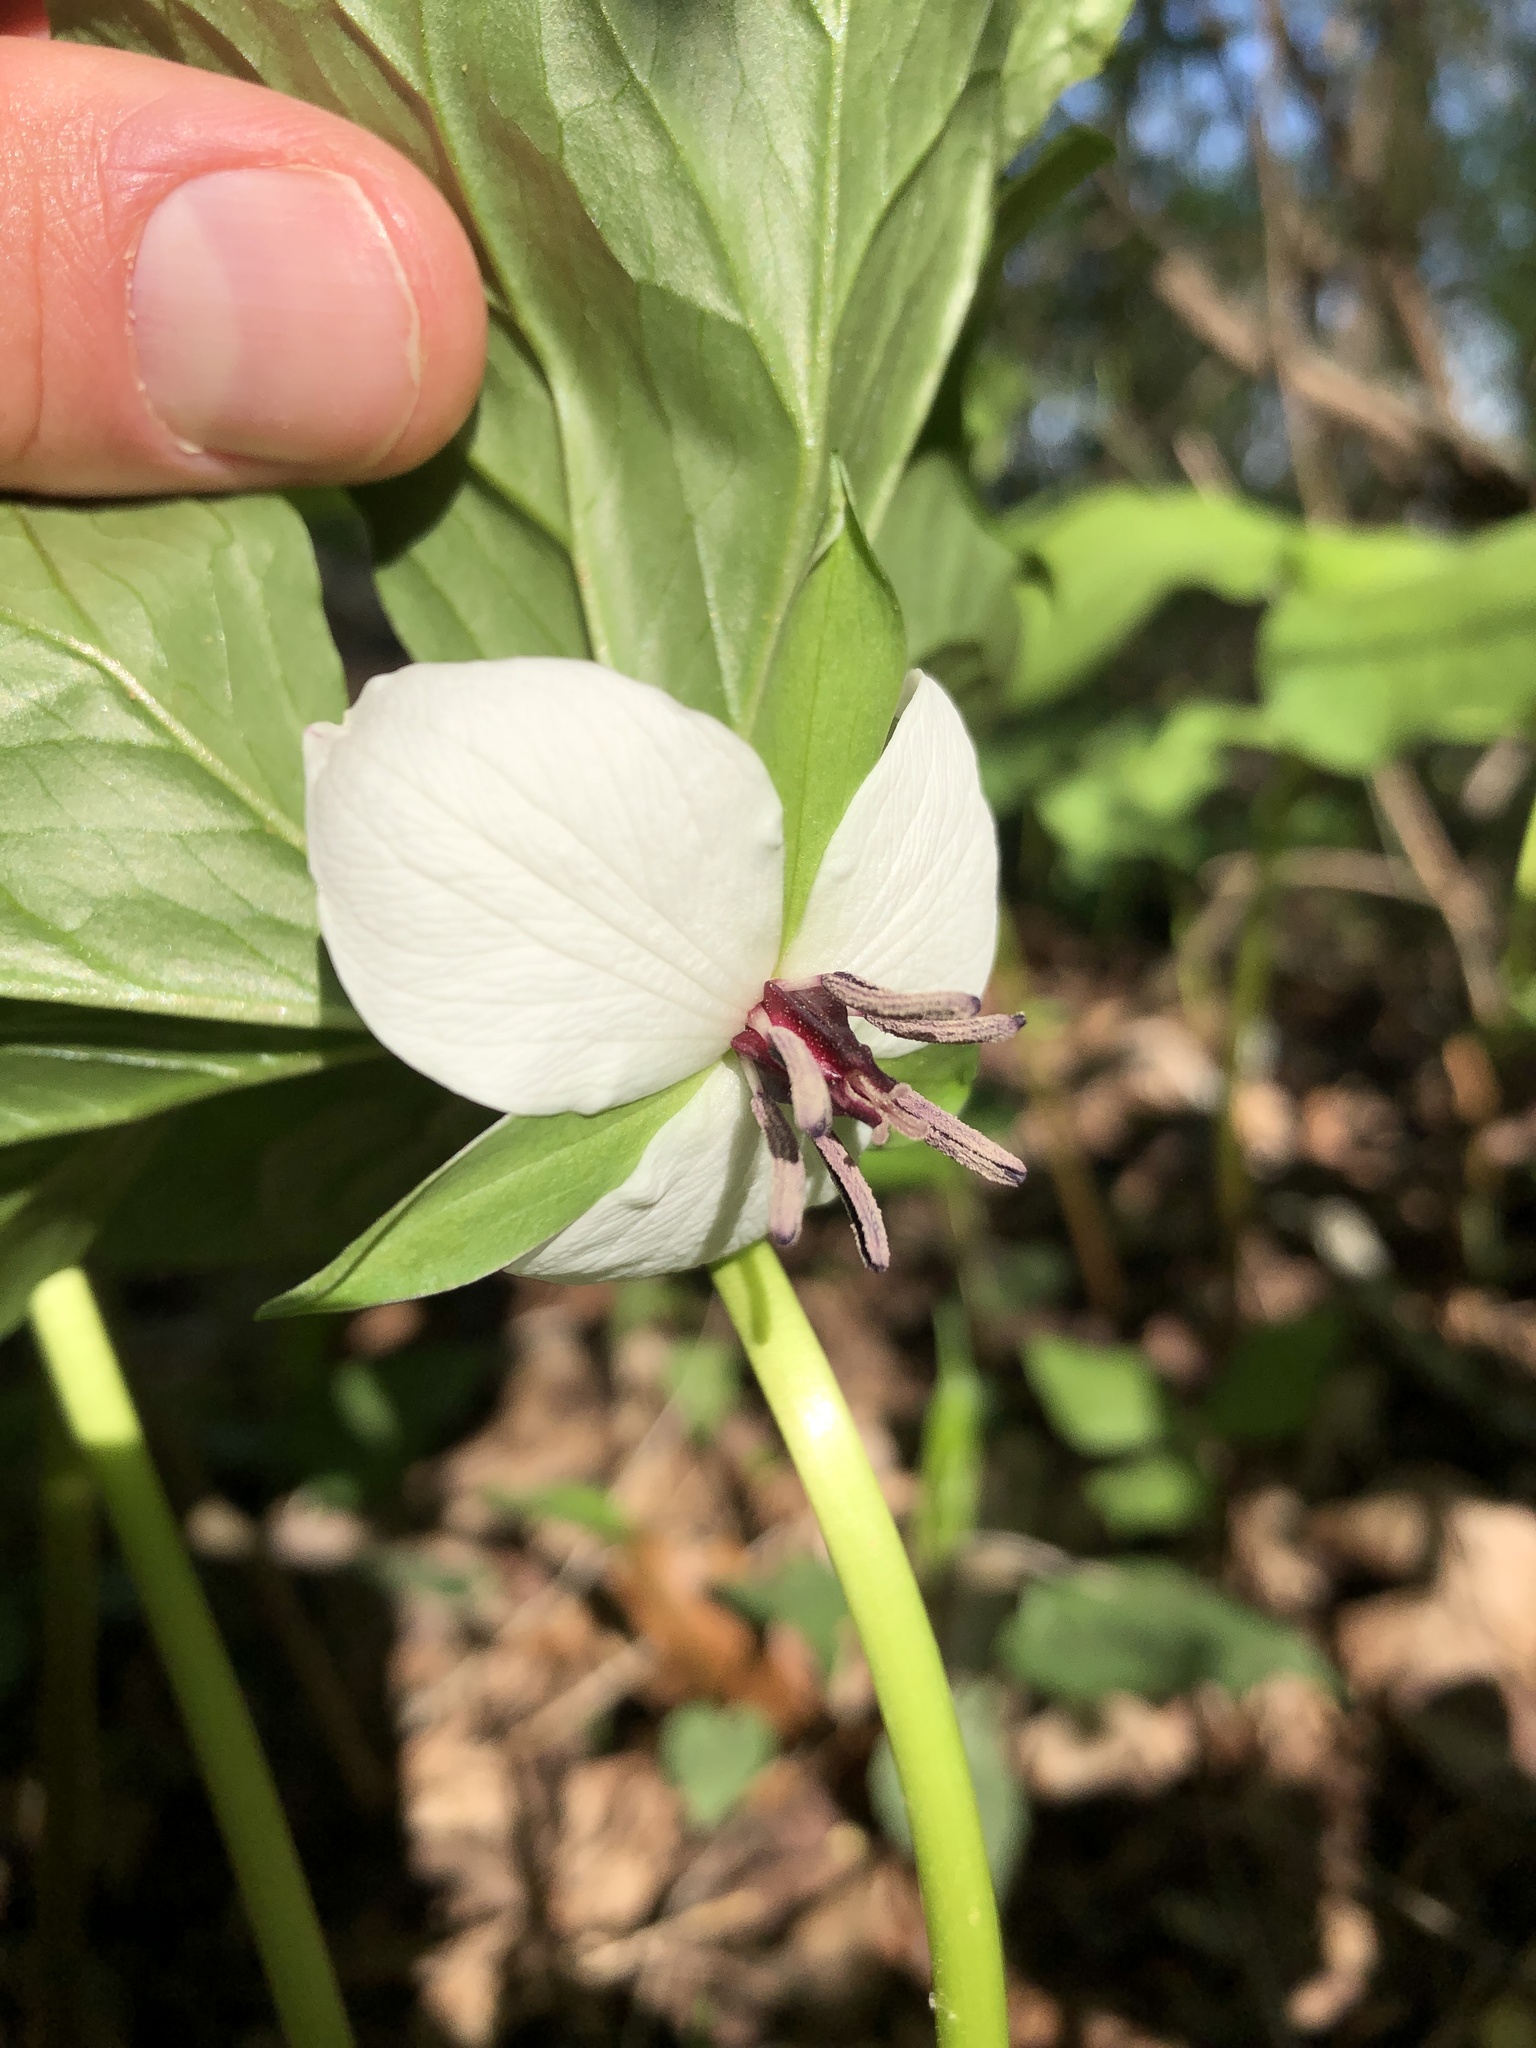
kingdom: Plantae
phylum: Tracheophyta
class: Liliopsida
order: Liliales
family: Melanthiaceae
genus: Trillium
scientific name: Trillium rugelii
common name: Ill-scented trillium
